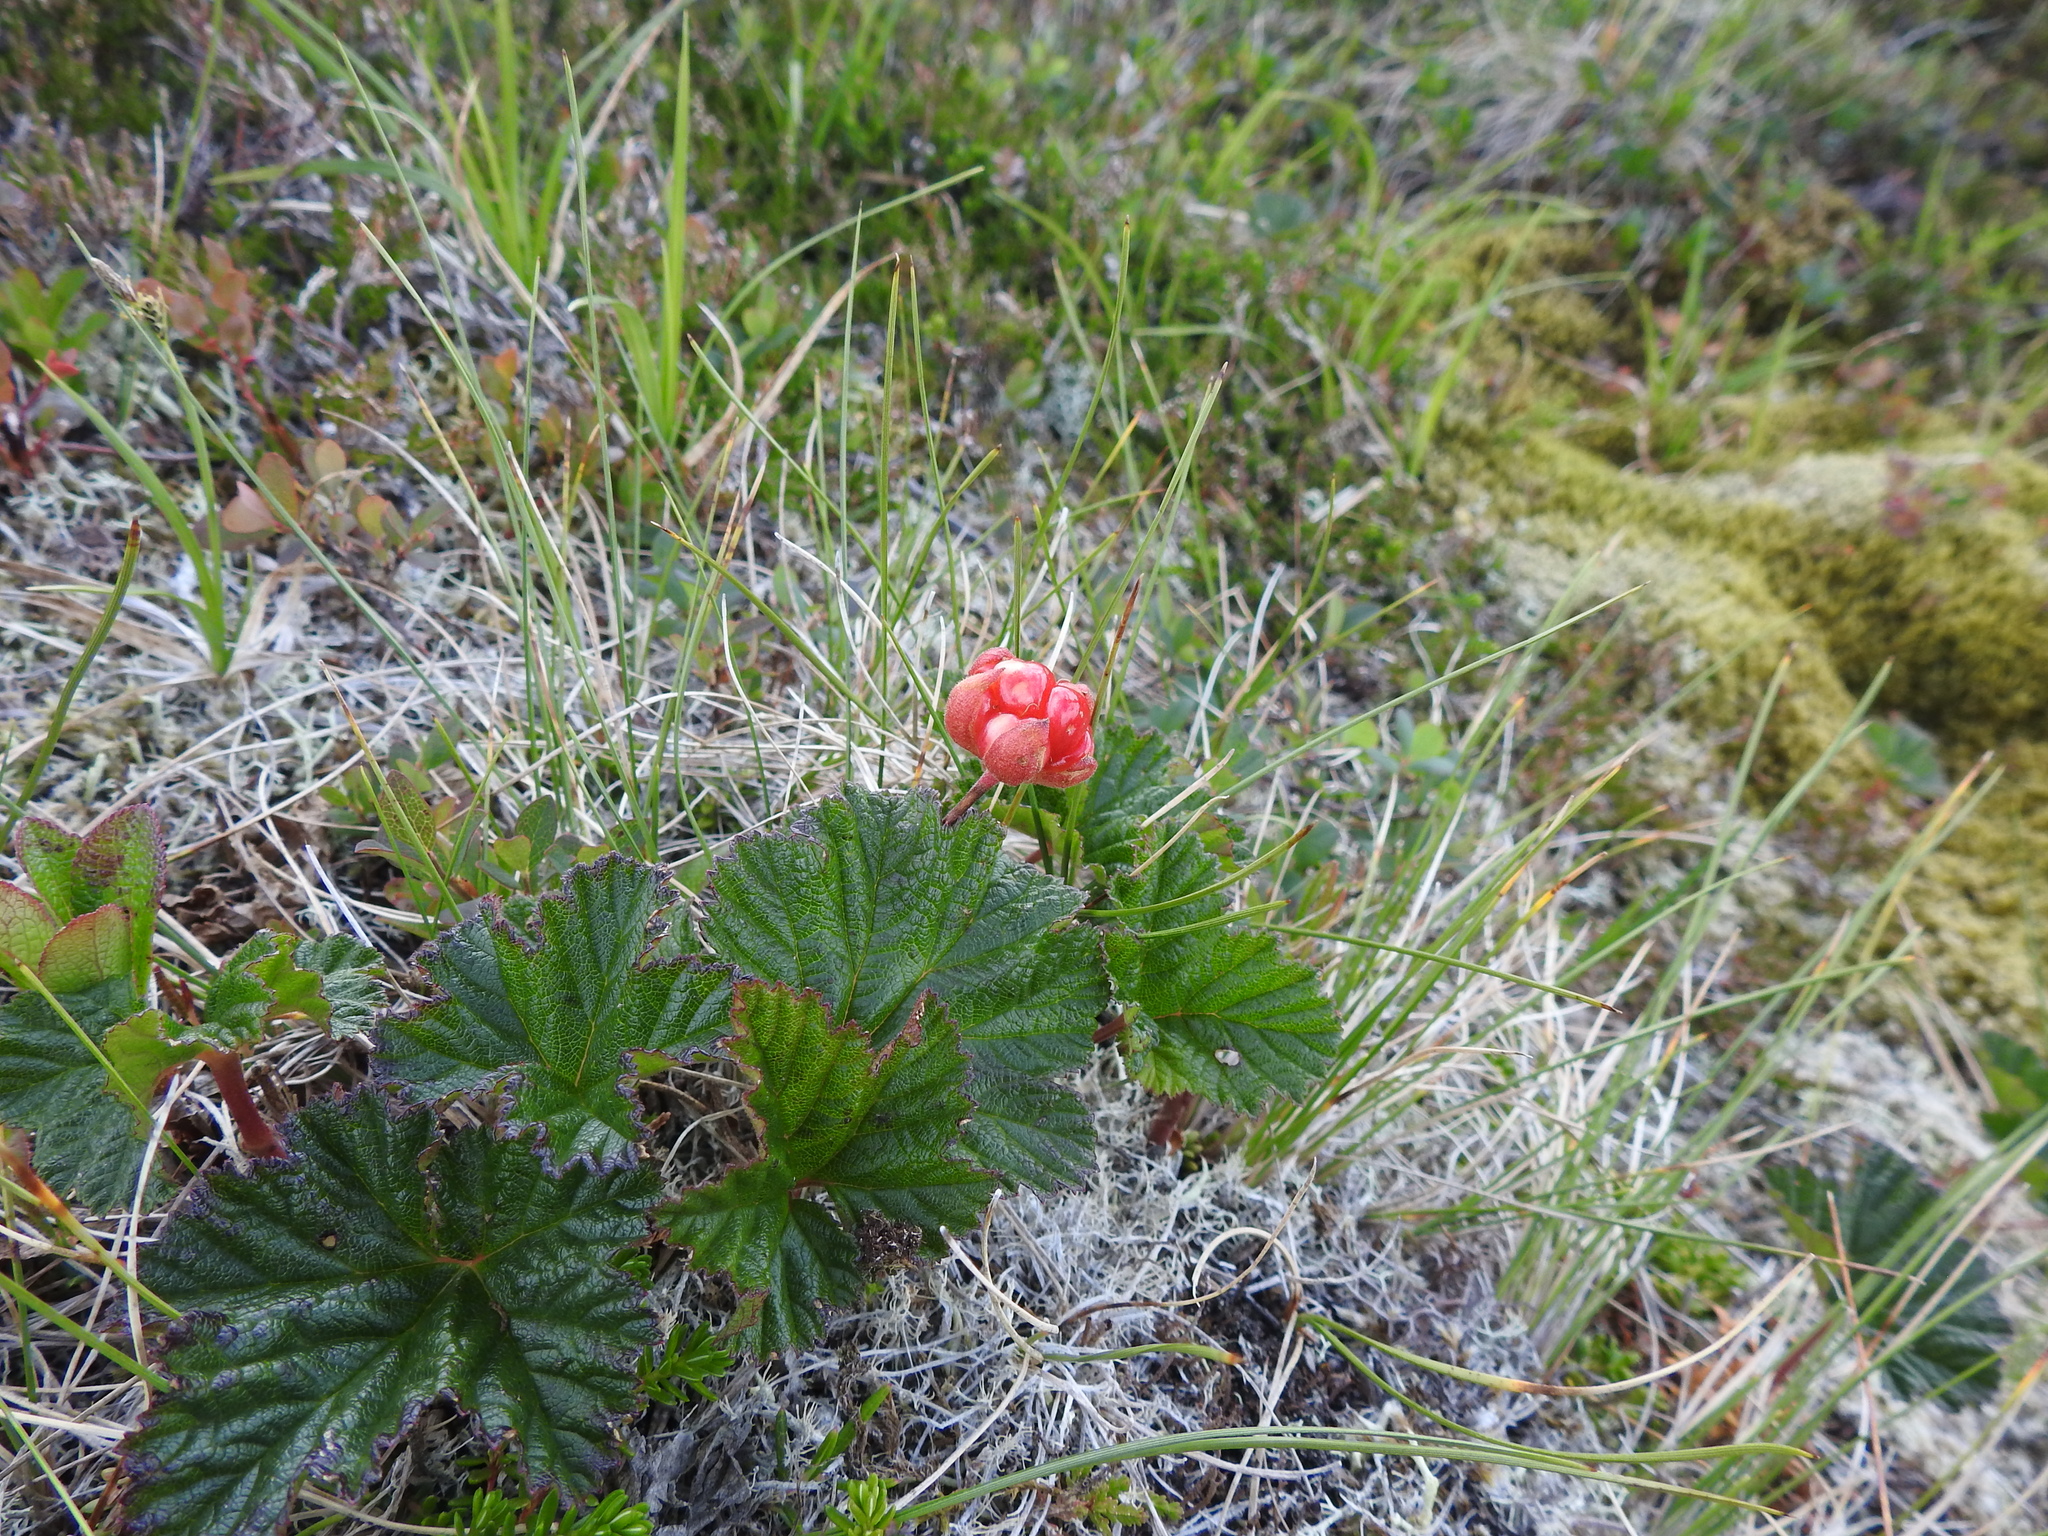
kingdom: Plantae
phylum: Tracheophyta
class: Magnoliopsida
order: Rosales
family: Rosaceae
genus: Rubus
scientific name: Rubus chamaemorus
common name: Cloudberry
